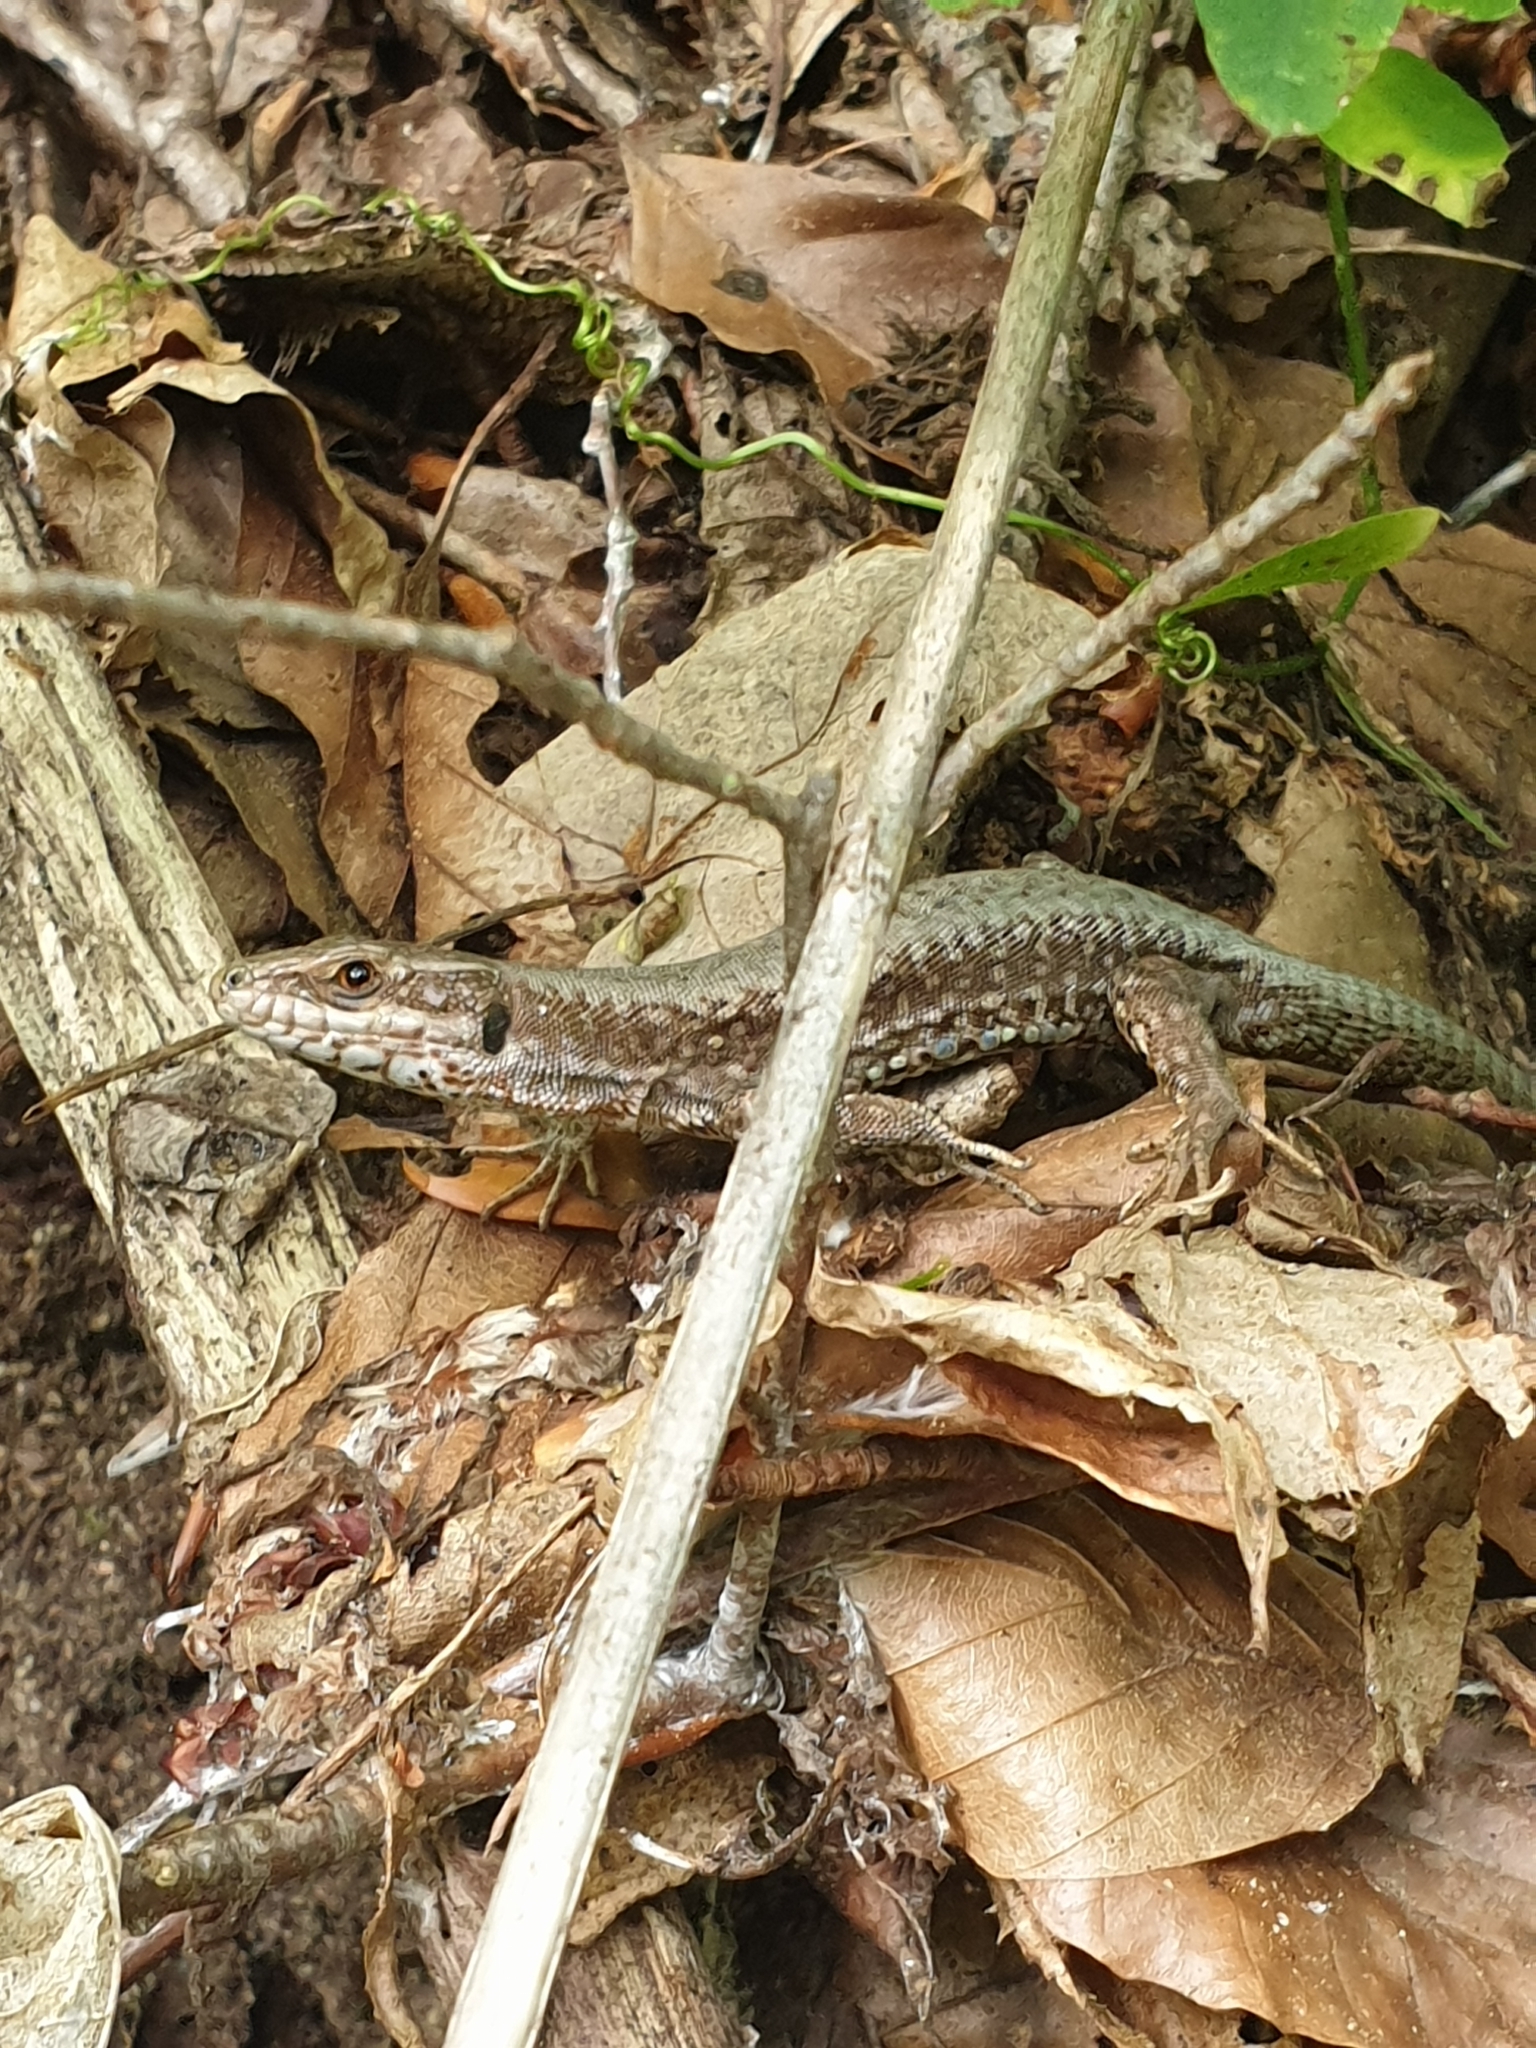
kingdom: Animalia
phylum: Chordata
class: Squamata
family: Lacertidae
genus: Podarcis
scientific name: Podarcis muralis
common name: Common wall lizard
